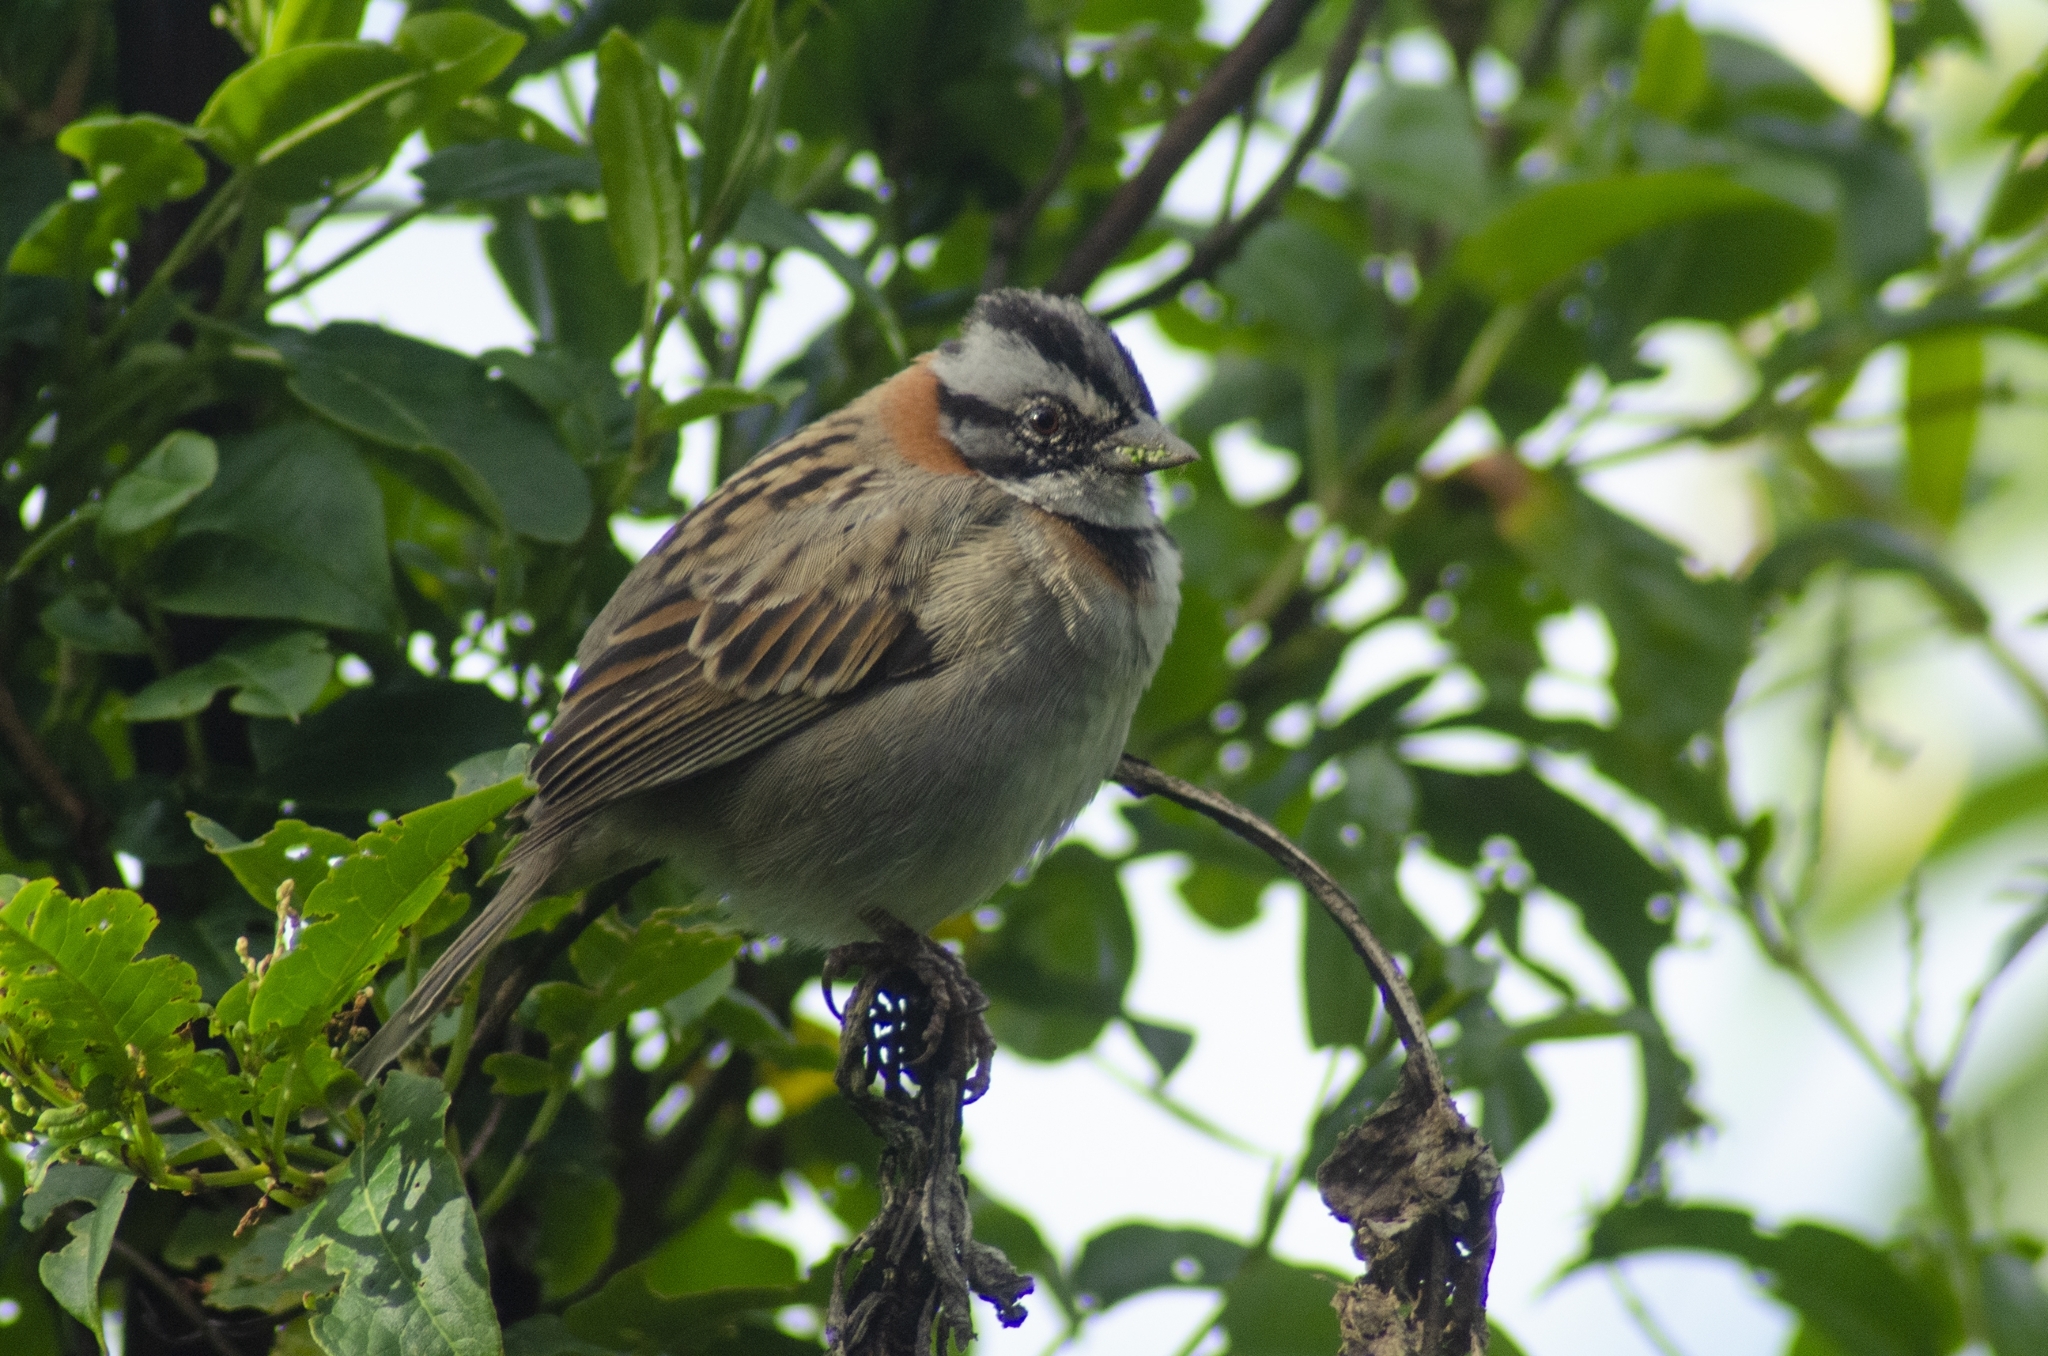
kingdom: Animalia
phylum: Chordata
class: Aves
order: Passeriformes
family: Passerellidae
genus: Zonotrichia
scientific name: Zonotrichia capensis
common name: Rufous-collared sparrow
